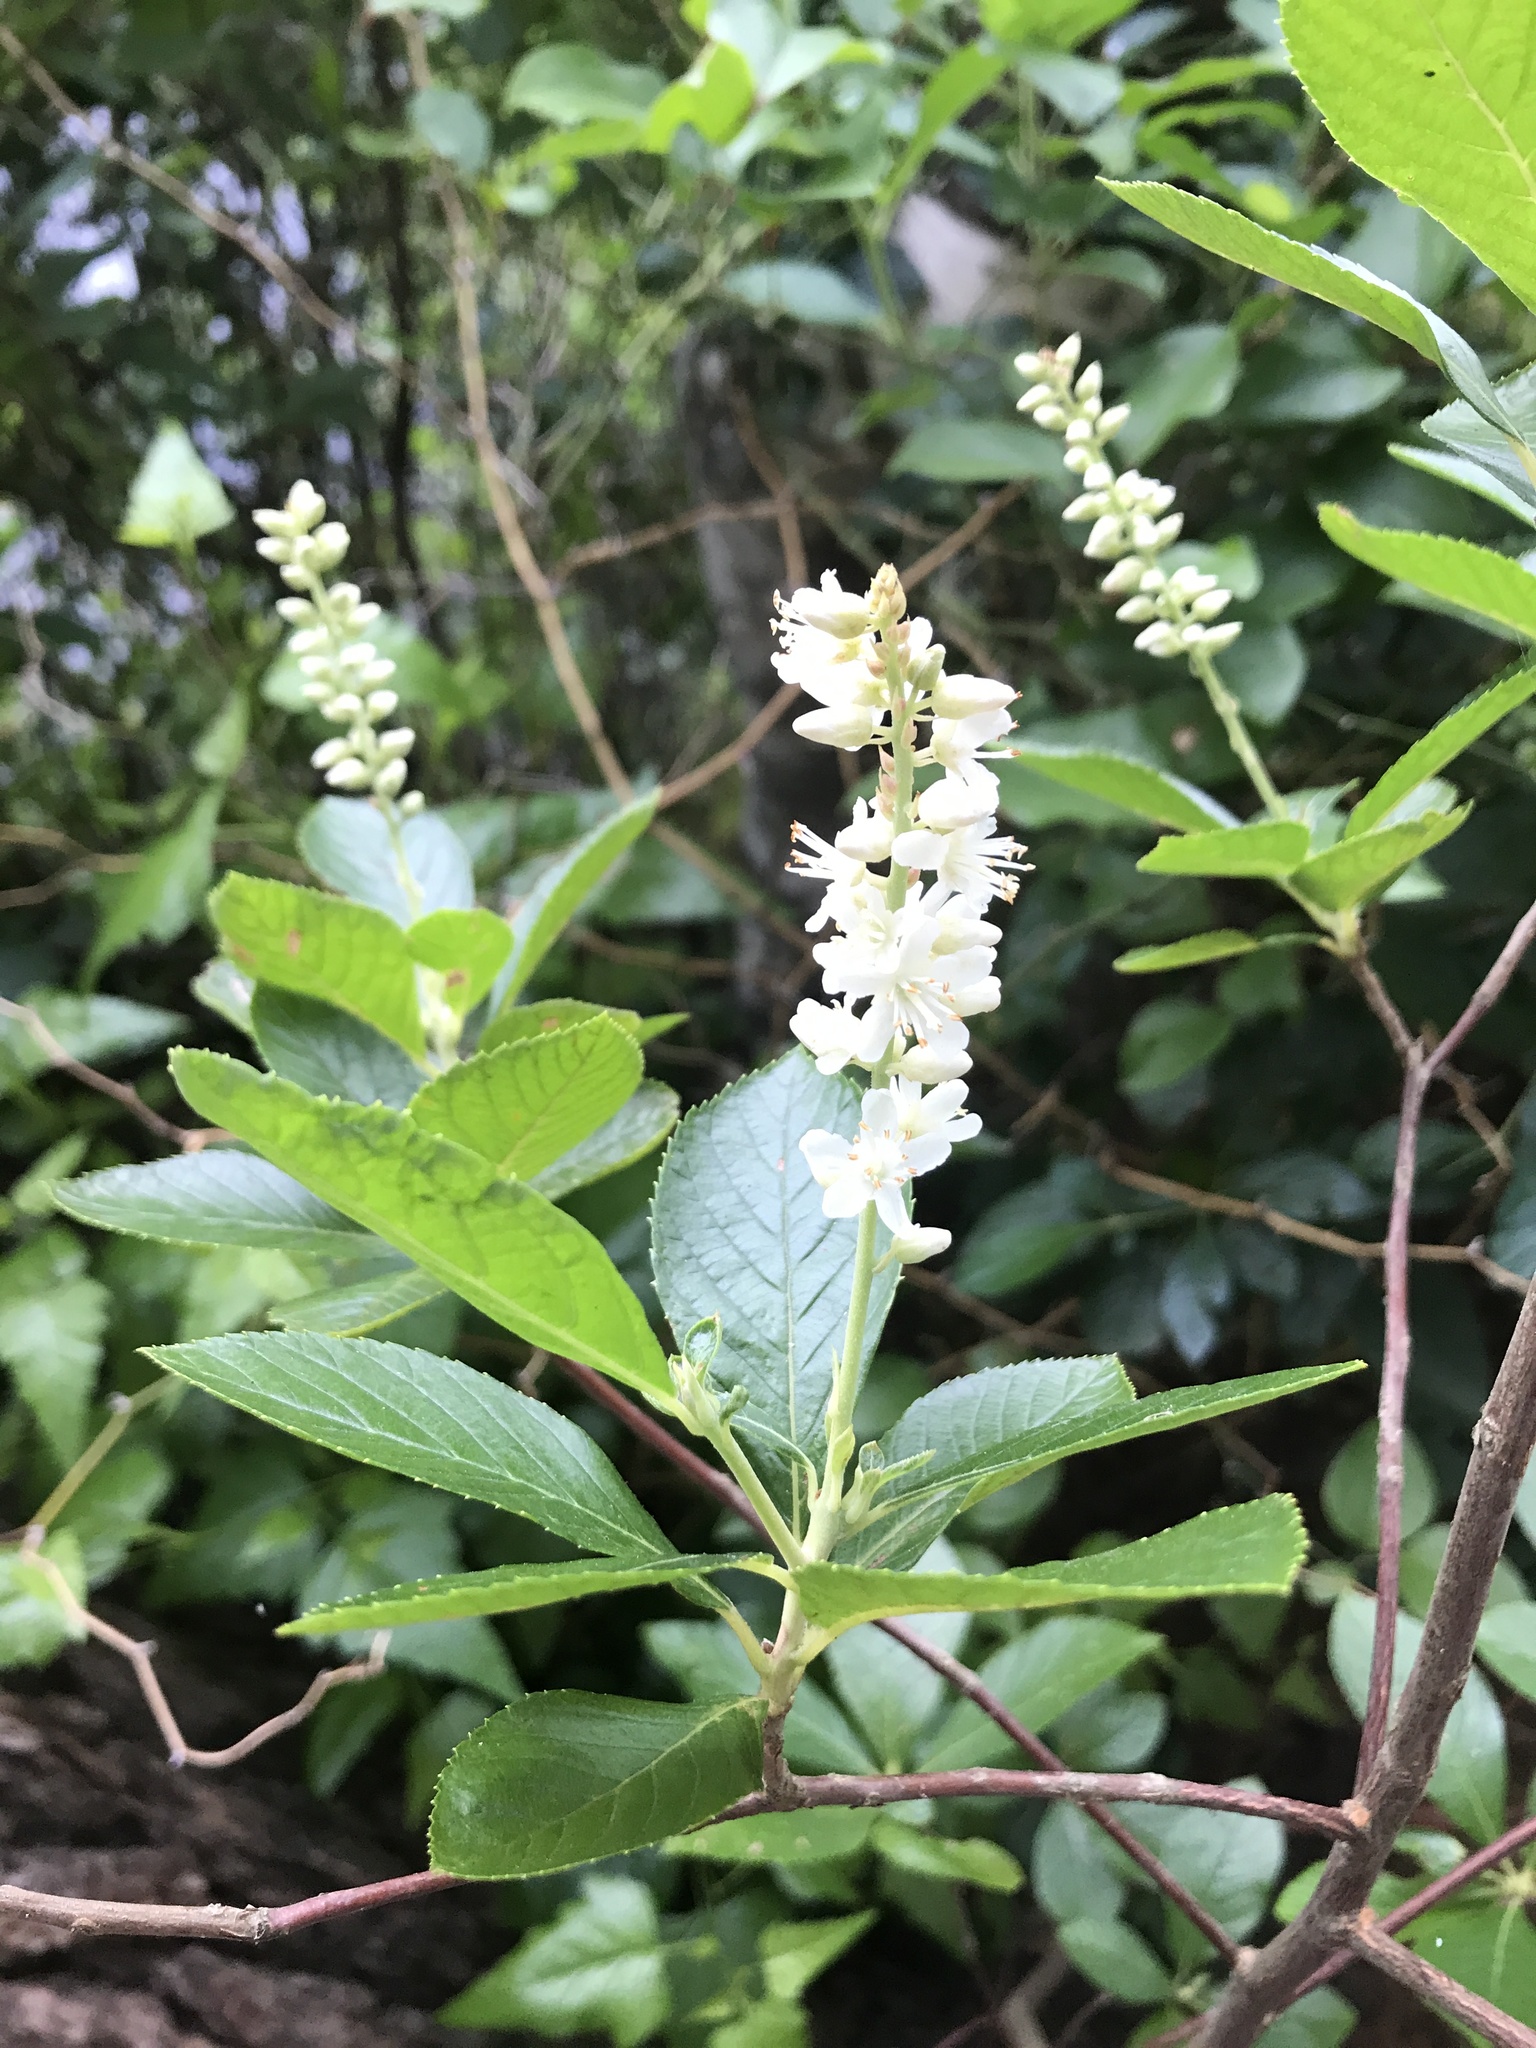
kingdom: Plantae
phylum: Tracheophyta
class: Magnoliopsida
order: Ericales
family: Clethraceae
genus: Clethra
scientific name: Clethra alnifolia
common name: Sweet pepperbush
